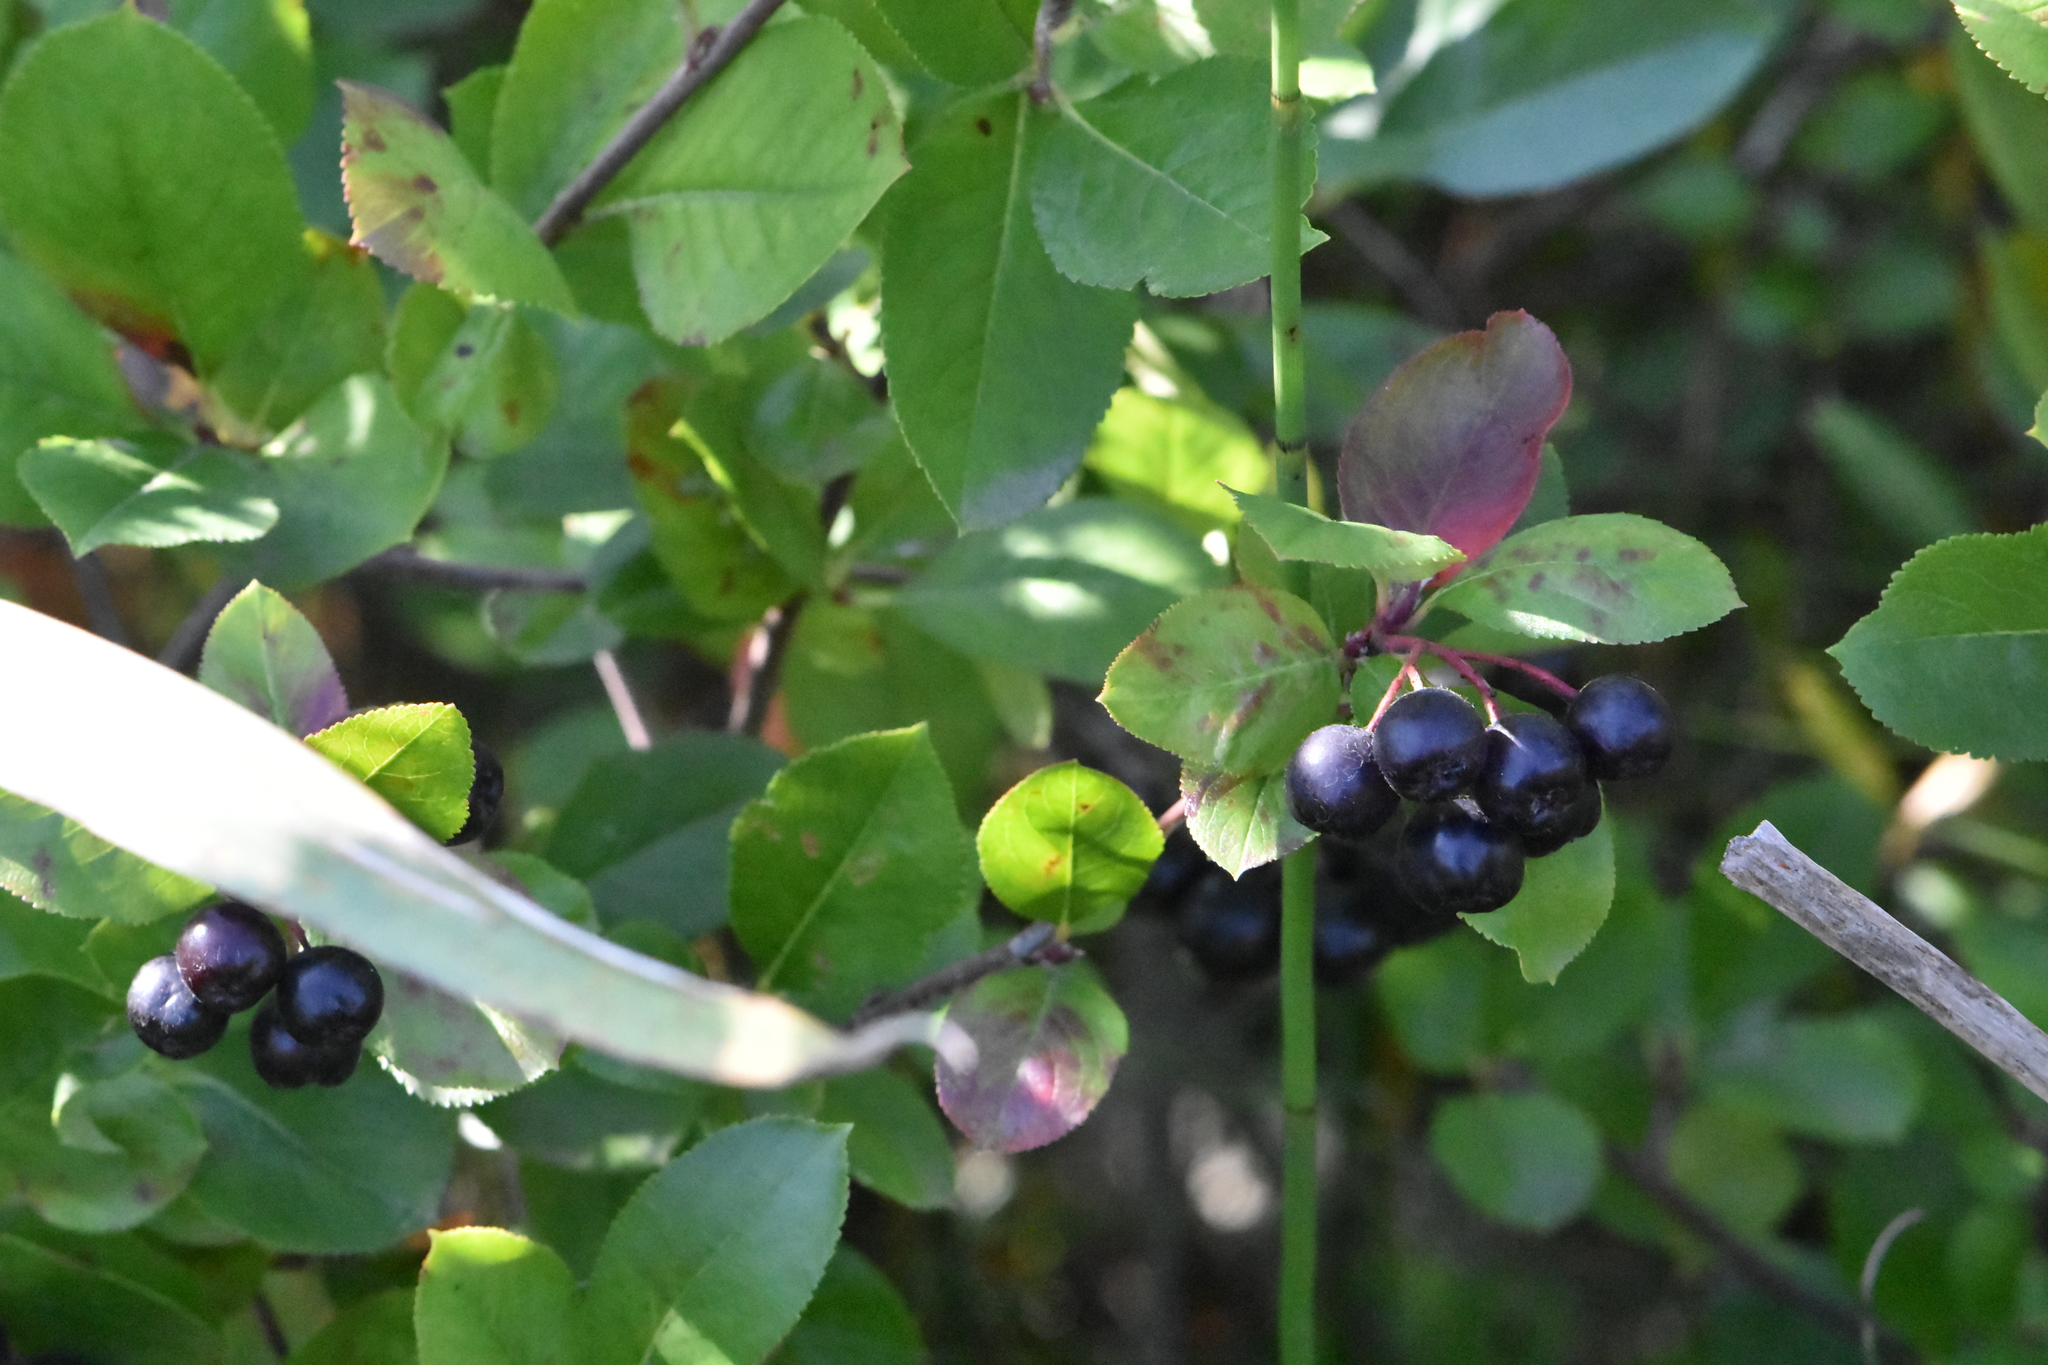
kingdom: Plantae
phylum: Tracheophyta
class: Magnoliopsida
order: Rosales
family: Rosaceae
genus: Sorbaronia
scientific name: Sorbaronia arsenii
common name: Arsène's mountain-ash
